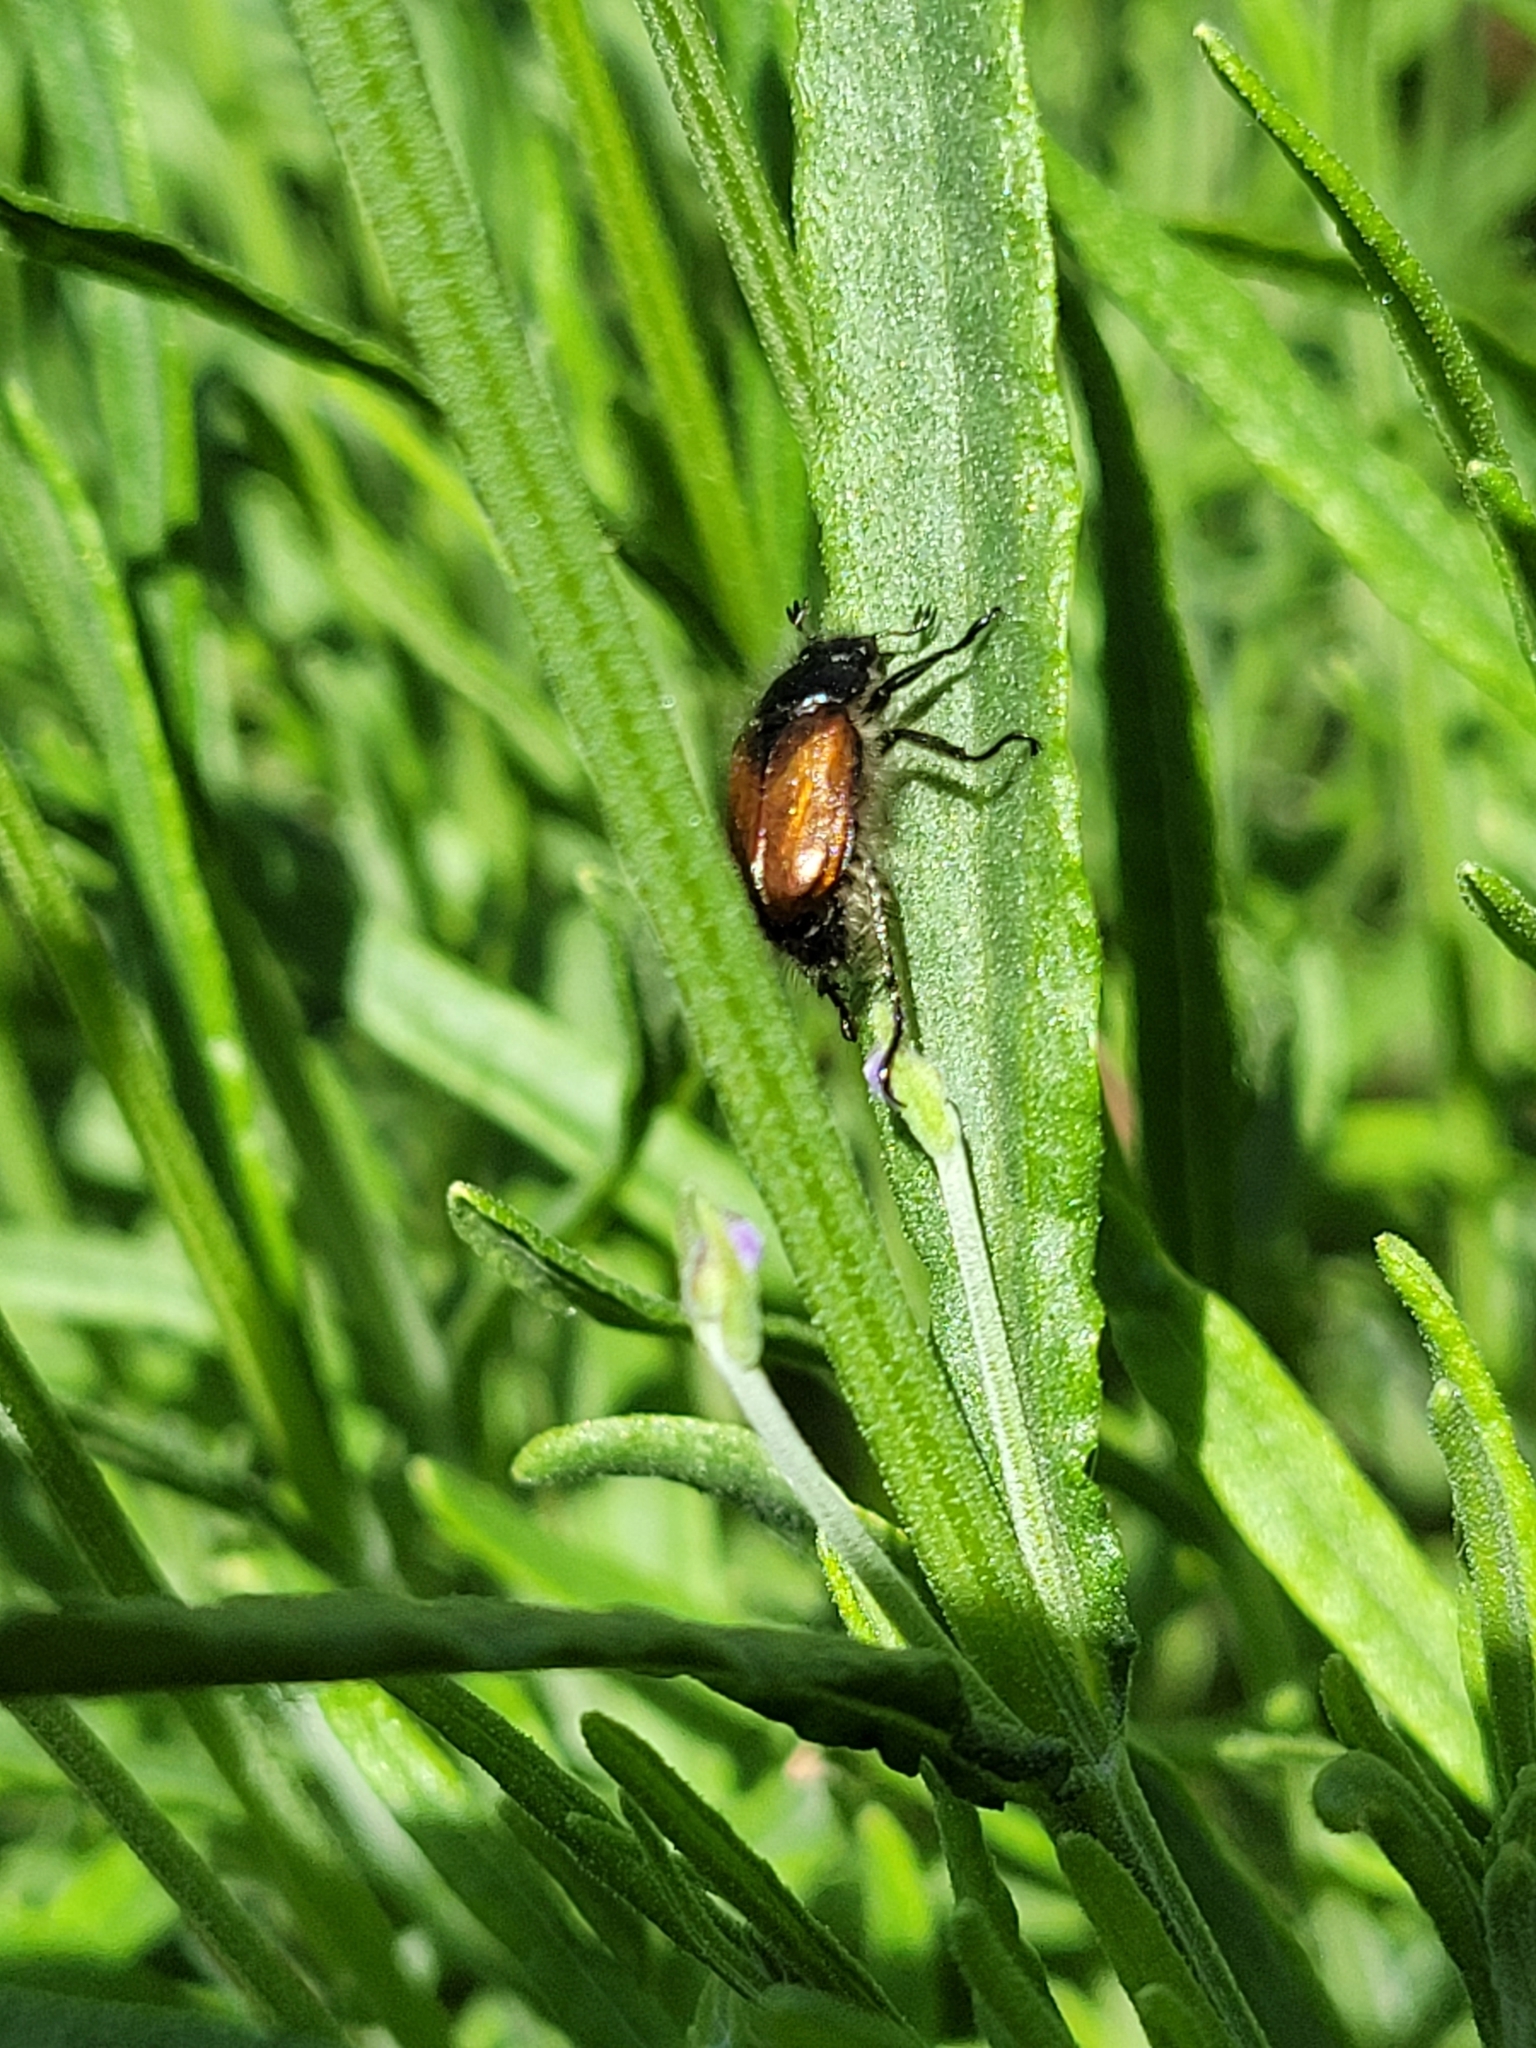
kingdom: Animalia
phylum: Arthropoda
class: Insecta
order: Coleoptera
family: Scarabaeidae
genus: Phyllopertha
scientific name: Phyllopertha horticola
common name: Garden chafer
